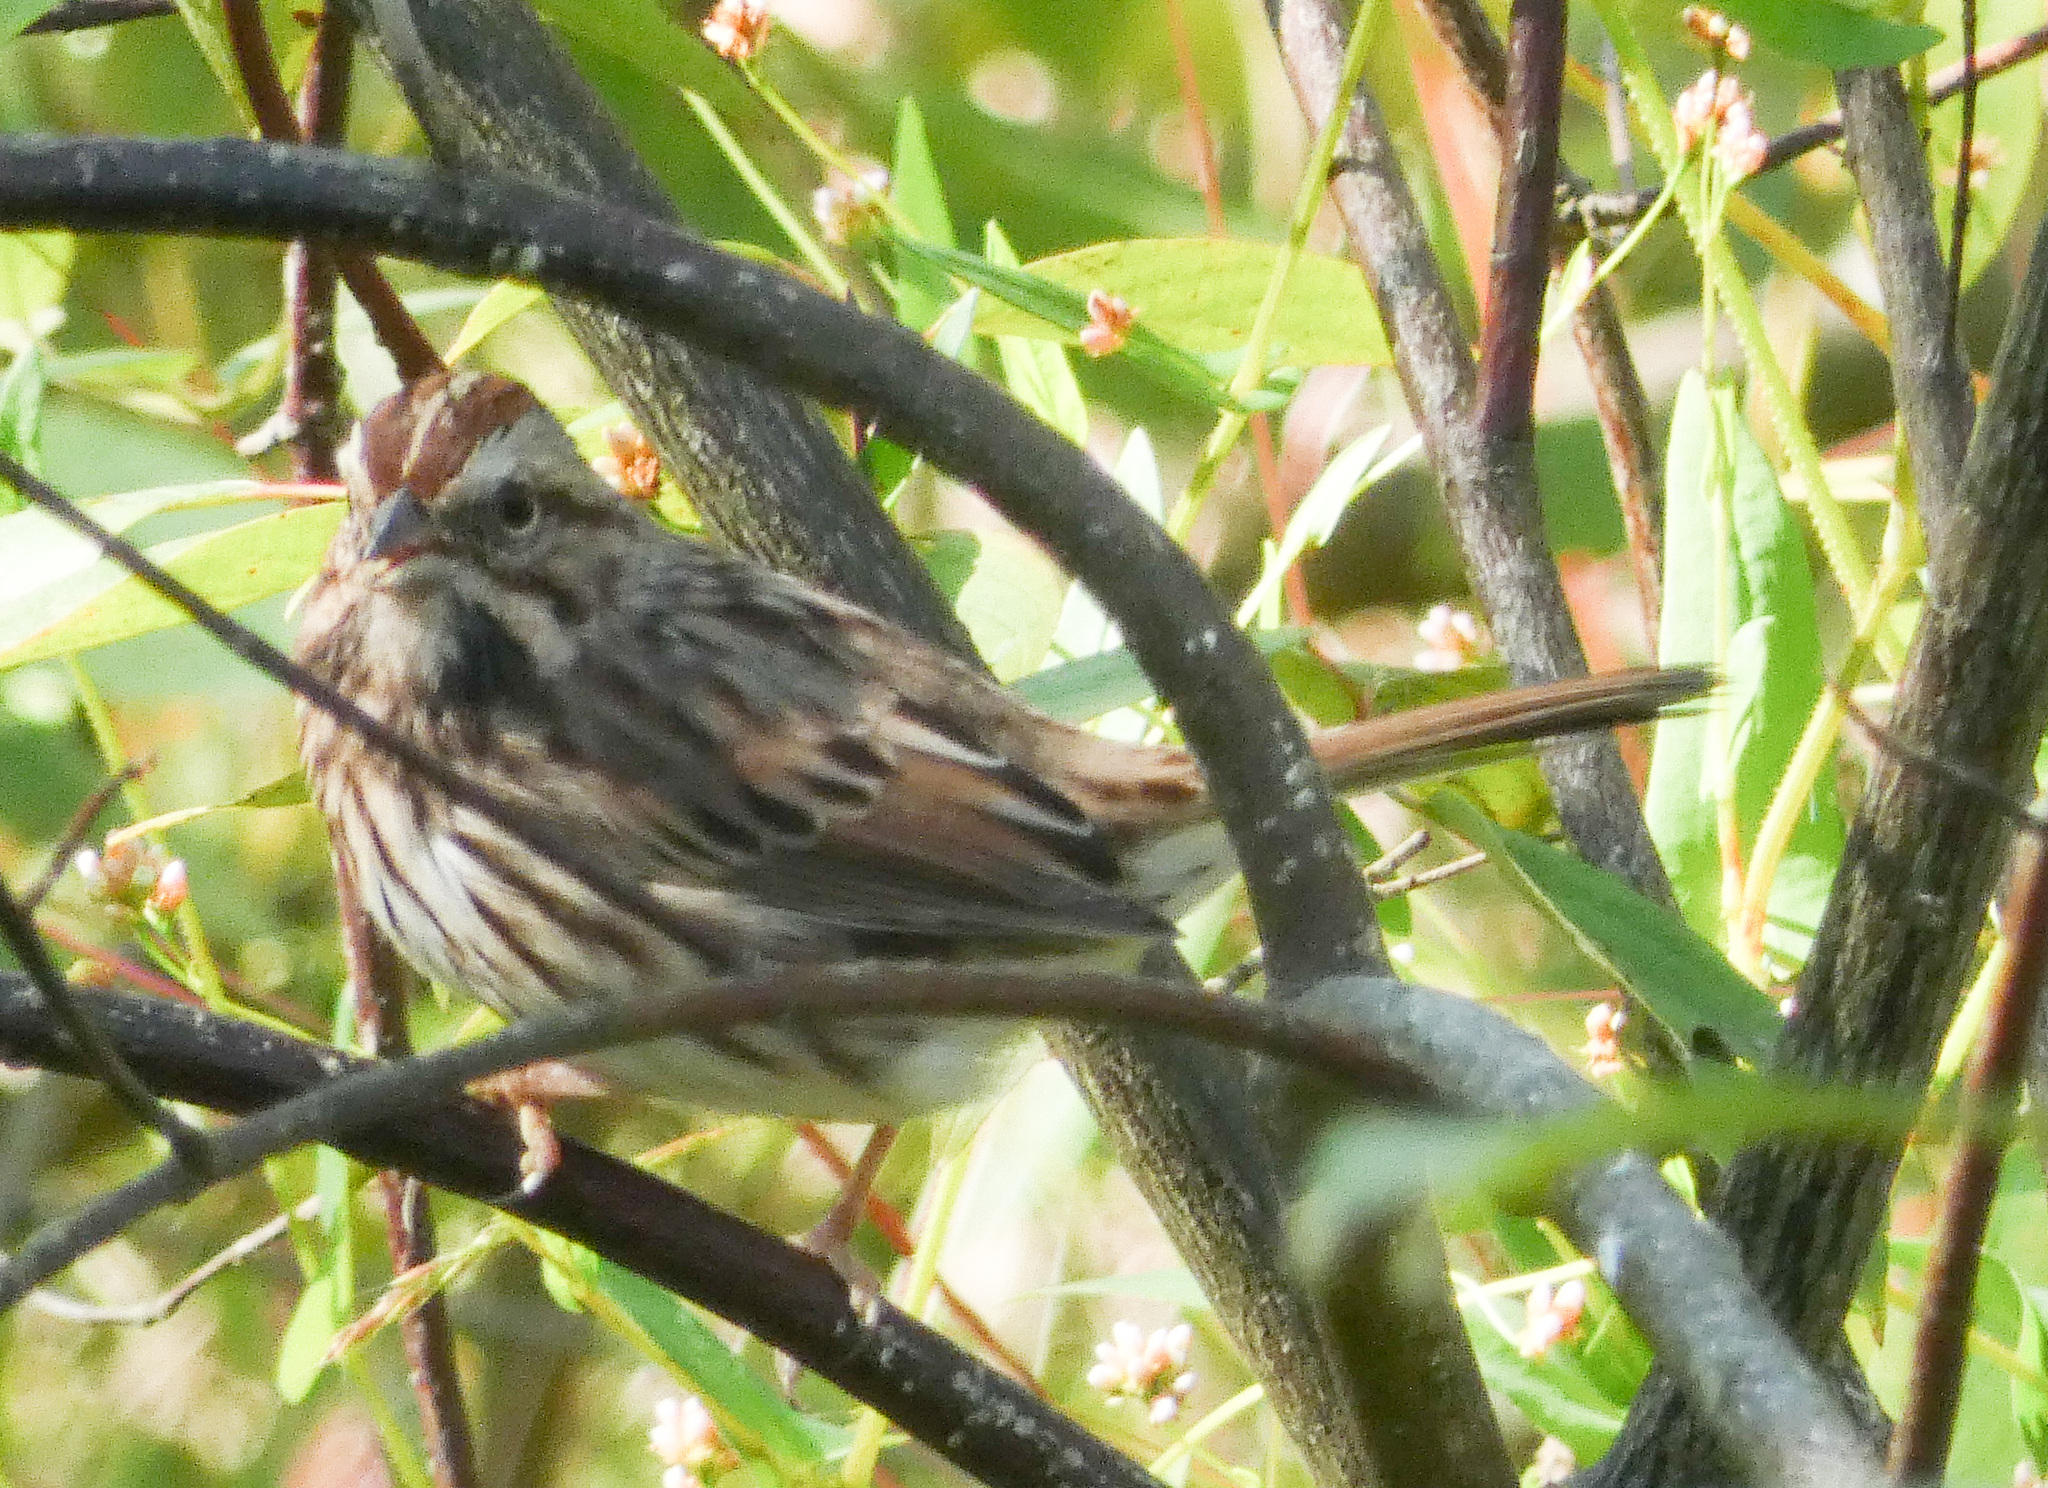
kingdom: Animalia
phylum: Chordata
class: Aves
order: Passeriformes
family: Passerellidae
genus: Melospiza
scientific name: Melospiza melodia
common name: Song sparrow
